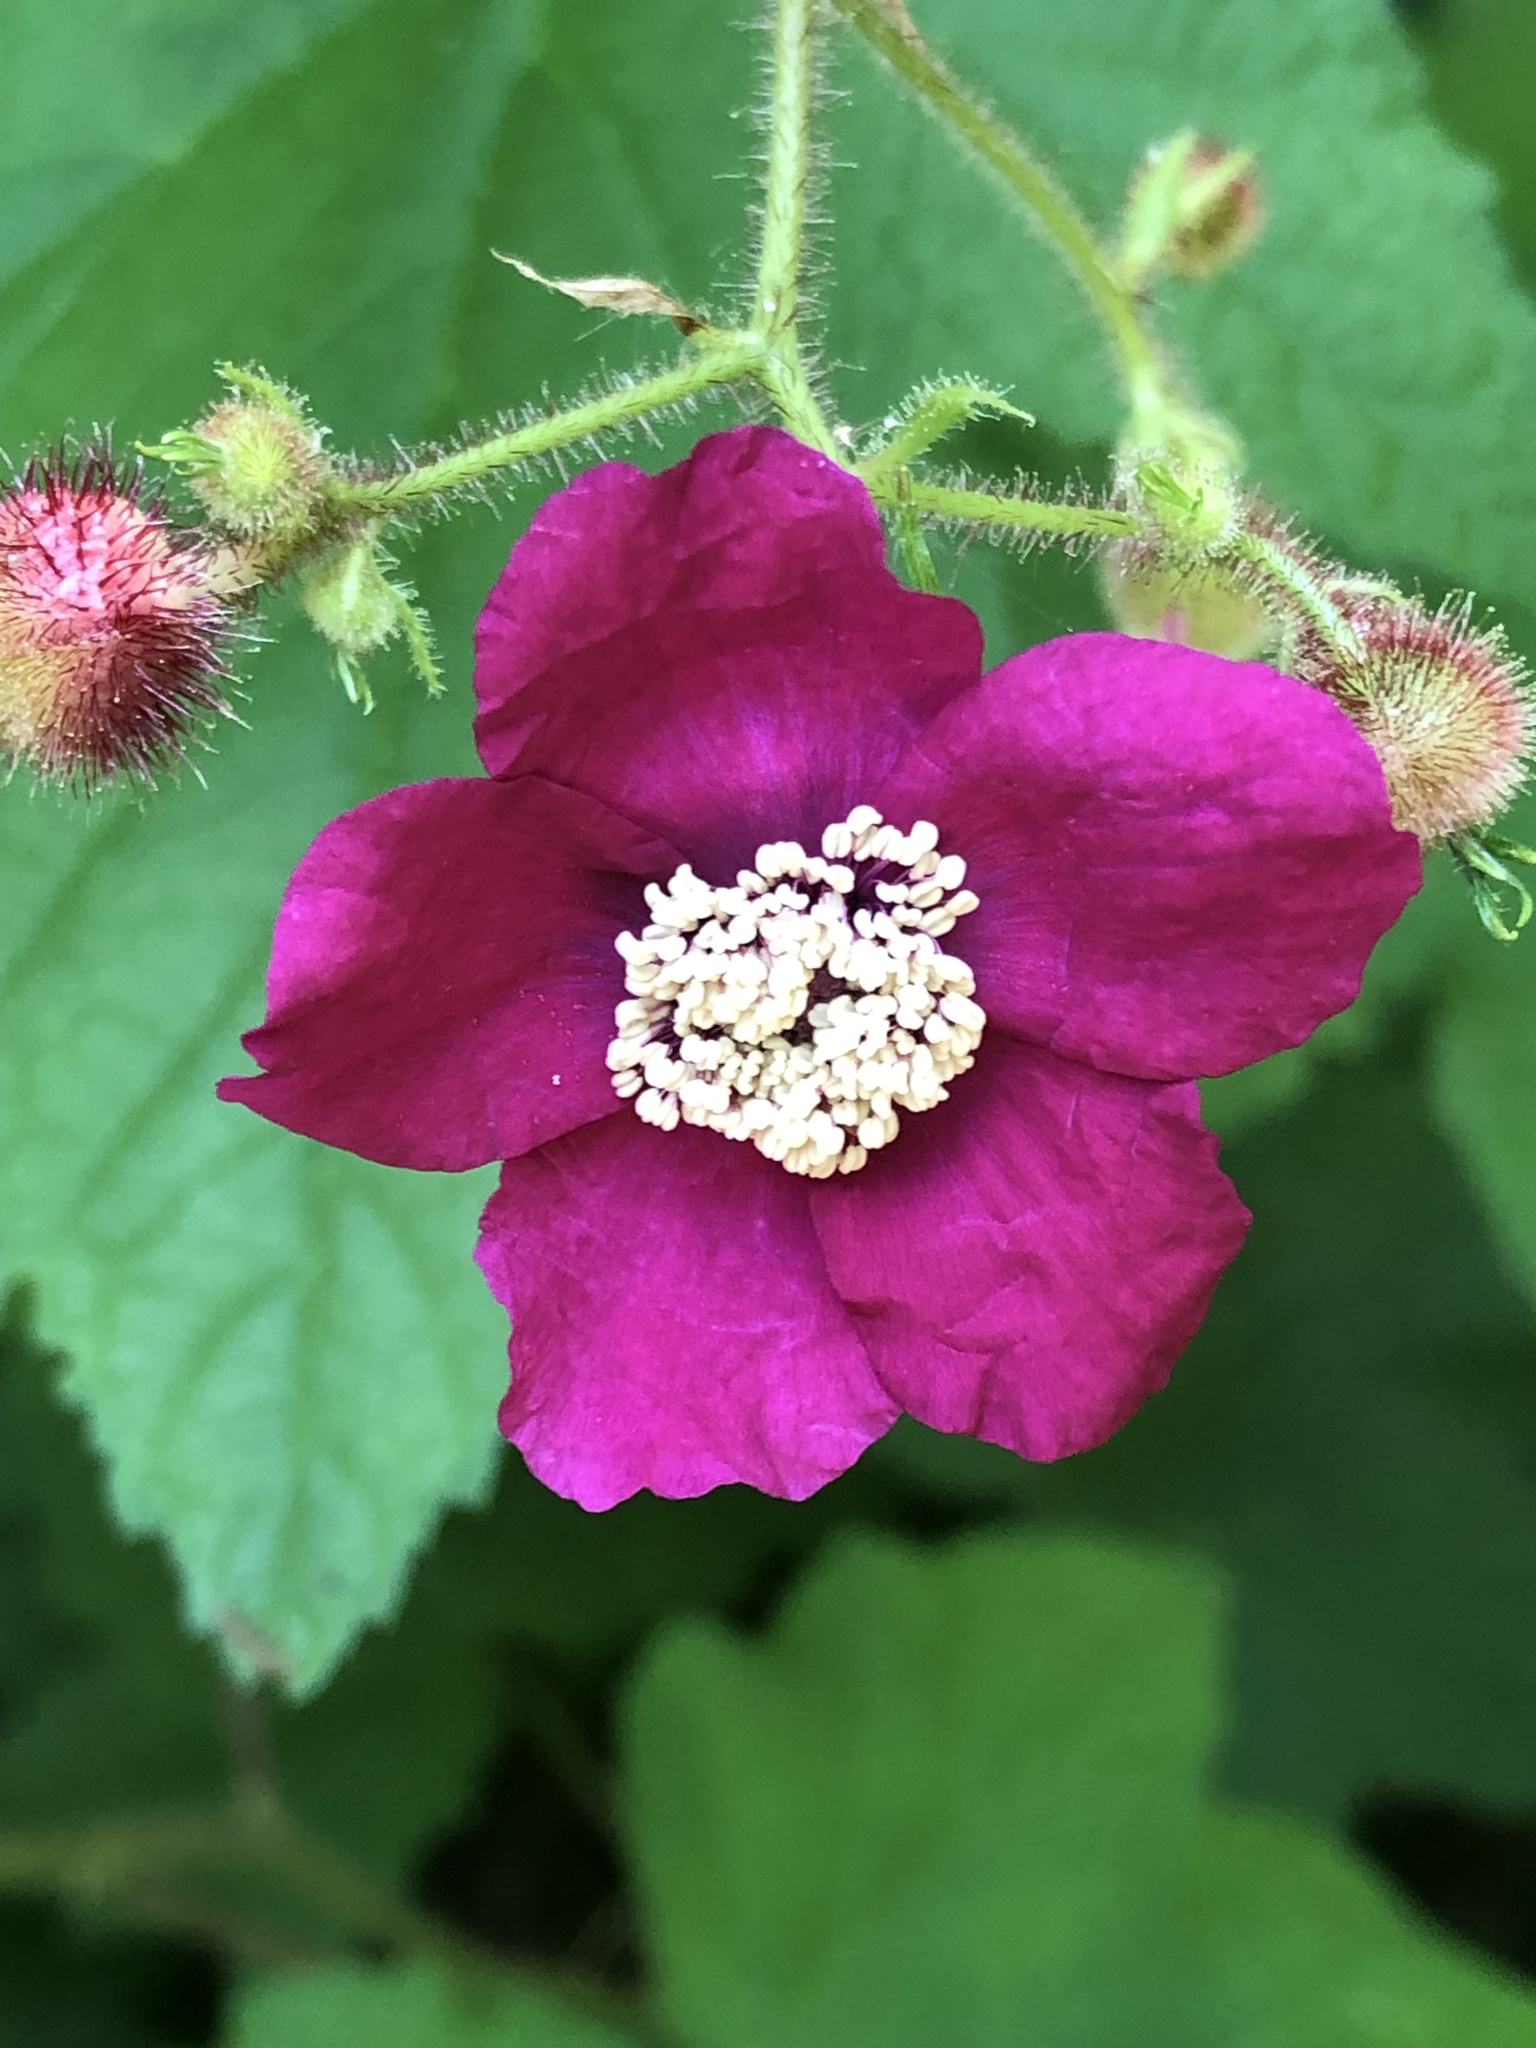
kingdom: Plantae
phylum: Tracheophyta
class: Magnoliopsida
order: Rosales
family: Rosaceae
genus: Rubus
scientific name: Rubus odoratus
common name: Purple-flowered raspberry
